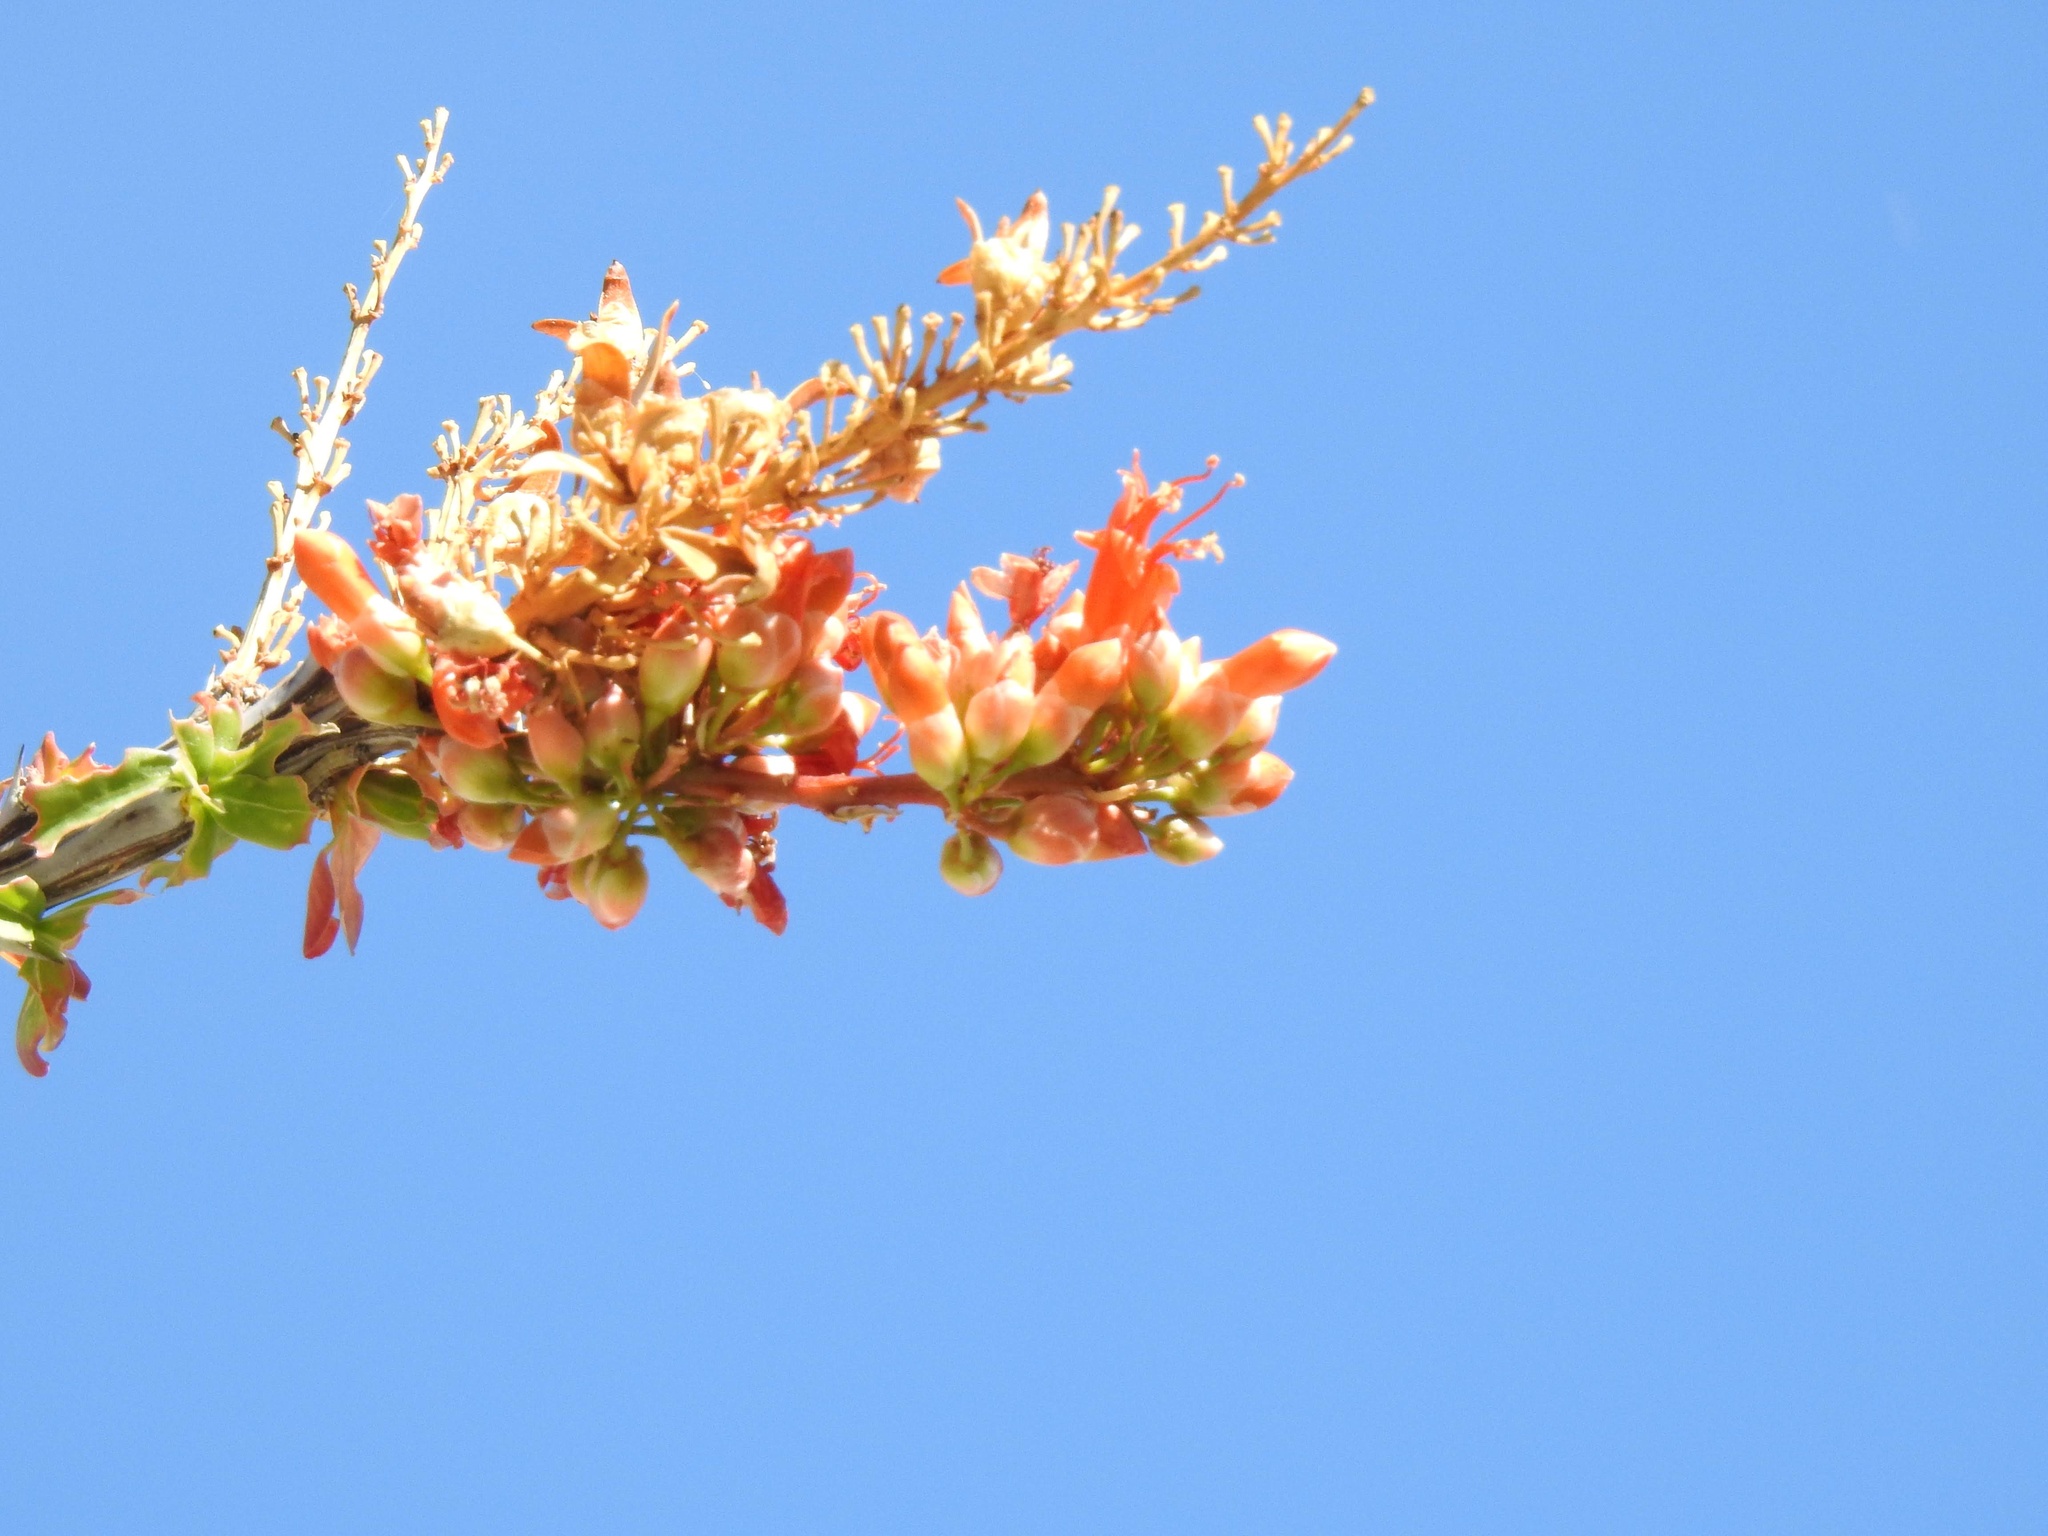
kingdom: Plantae
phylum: Tracheophyta
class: Magnoliopsida
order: Ericales
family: Fouquieriaceae
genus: Fouquieria
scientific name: Fouquieria splendens
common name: Vine-cactus
